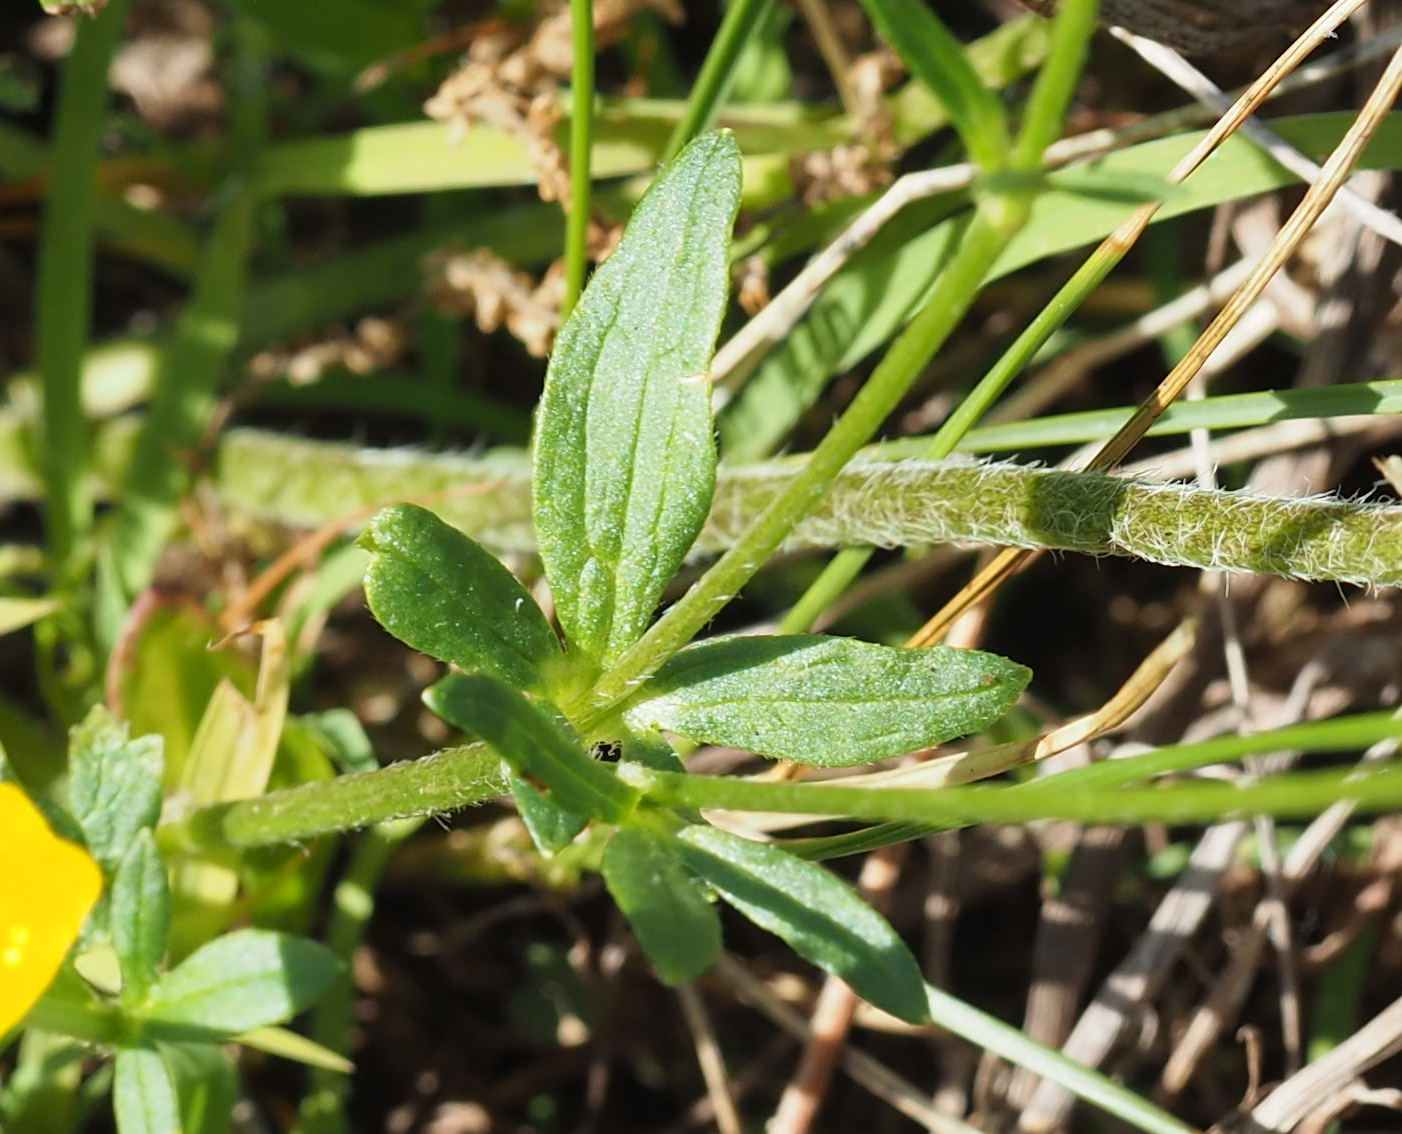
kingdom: Plantae
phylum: Tracheophyta
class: Magnoliopsida
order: Ranunculales
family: Ranunculaceae
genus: Ranunculus
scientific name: Ranunculus bulbosus
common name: Bulbous buttercup
